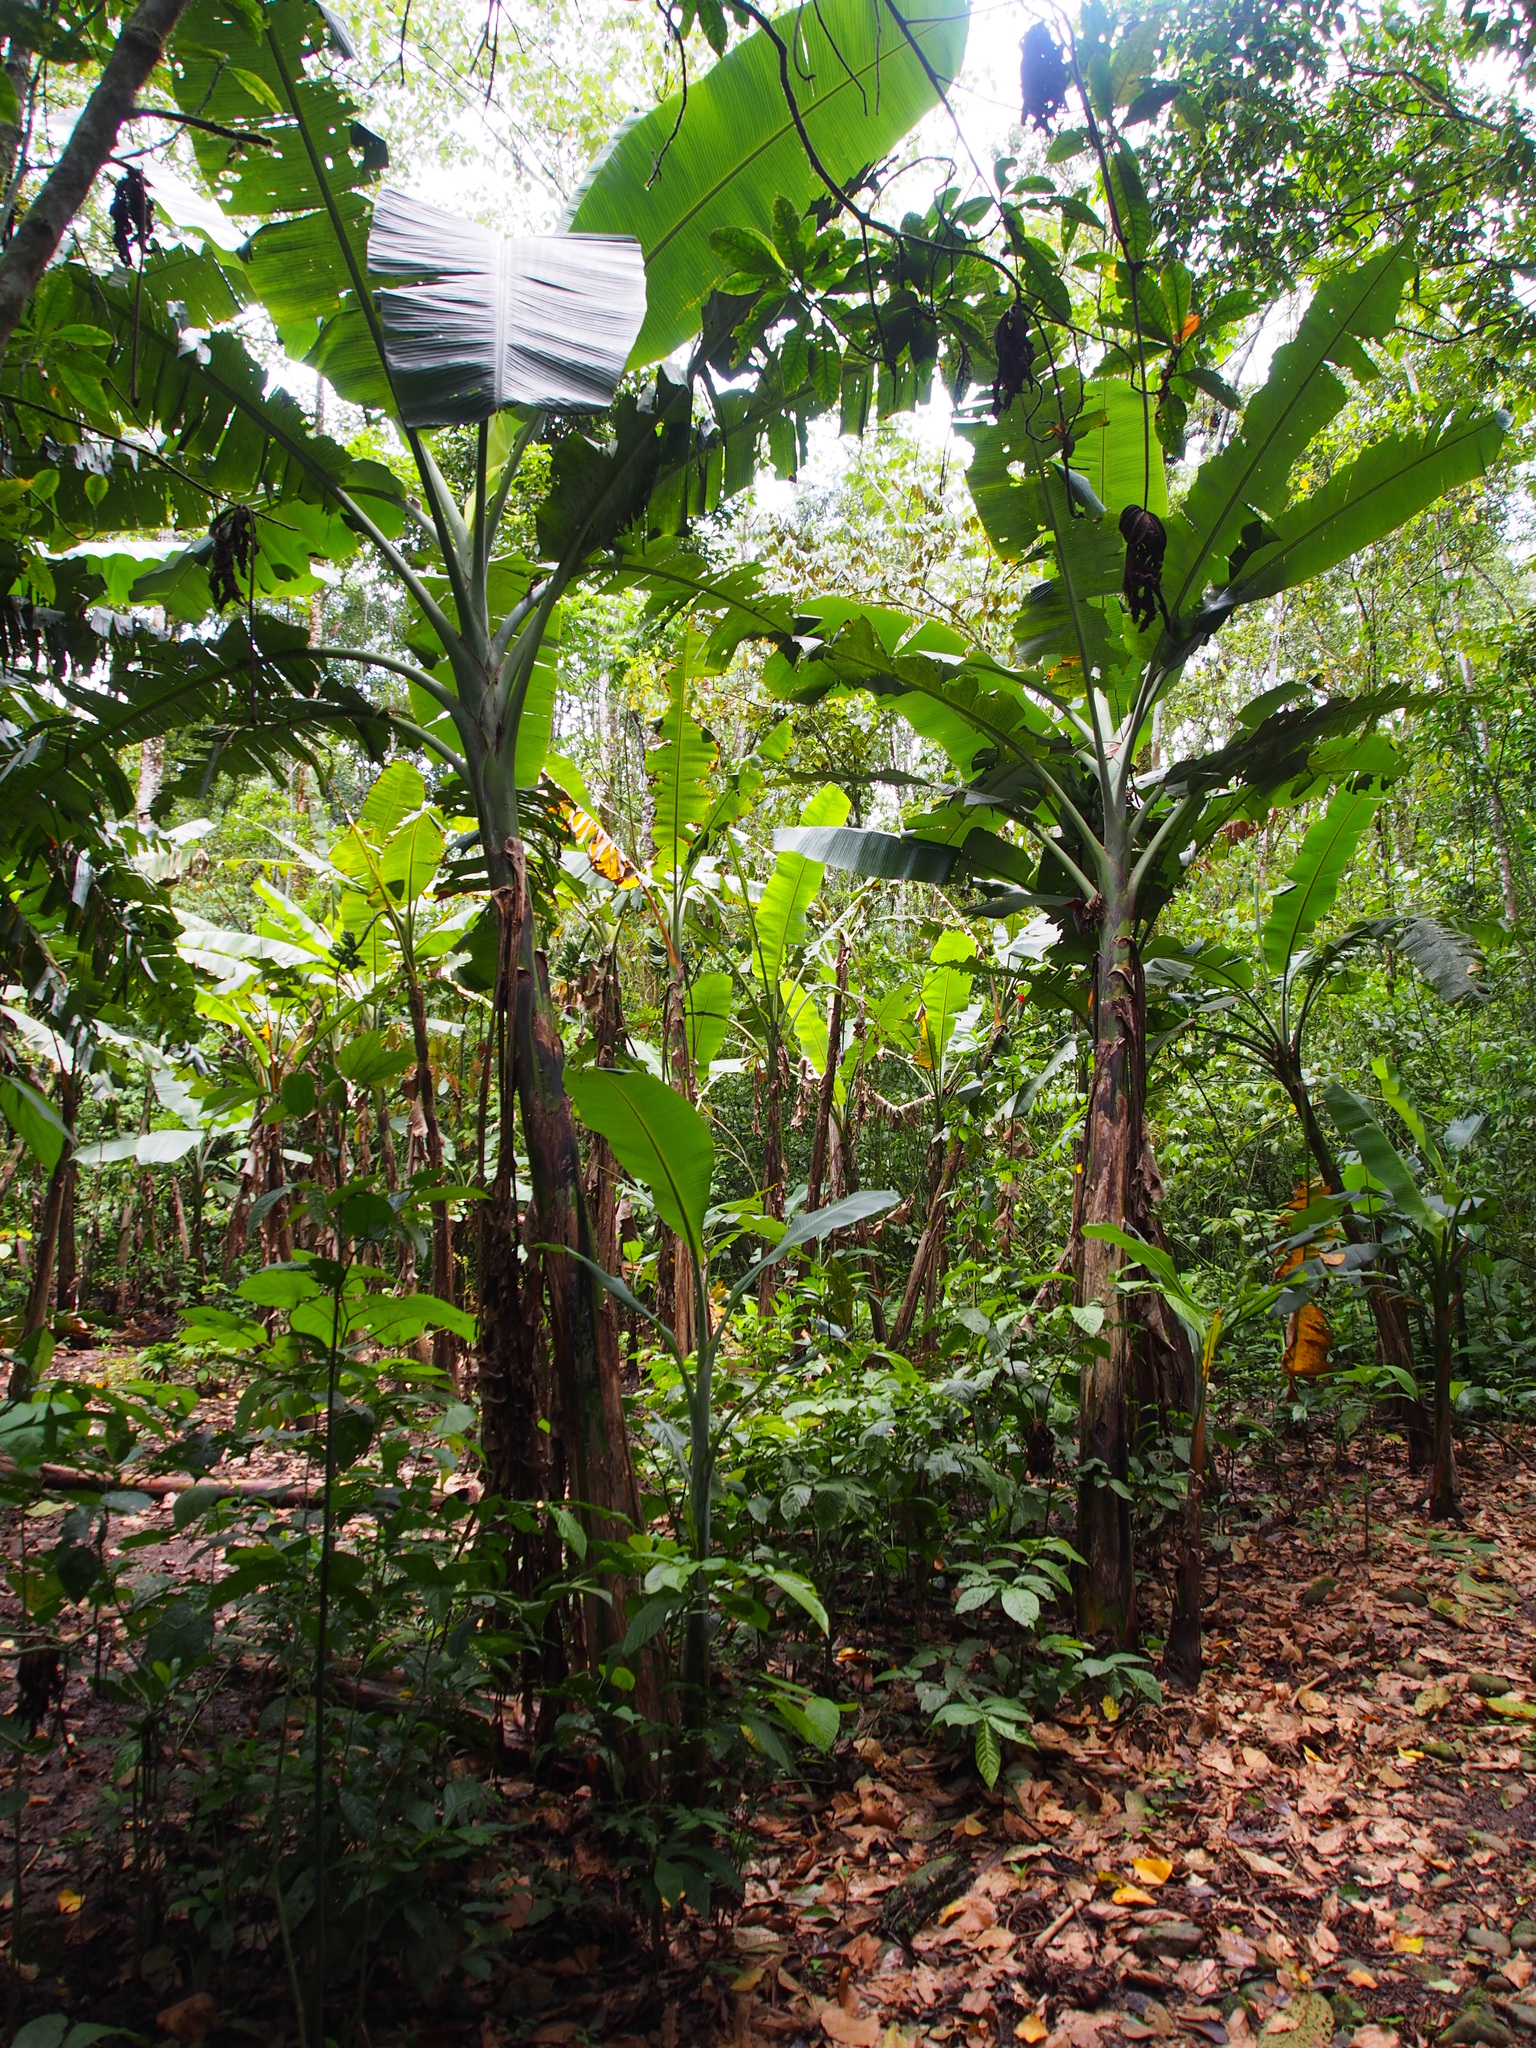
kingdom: Plantae
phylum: Tracheophyta
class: Liliopsida
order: Zingiberales
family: Musaceae
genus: Musa
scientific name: Musa paradisiaca
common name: French plantain
